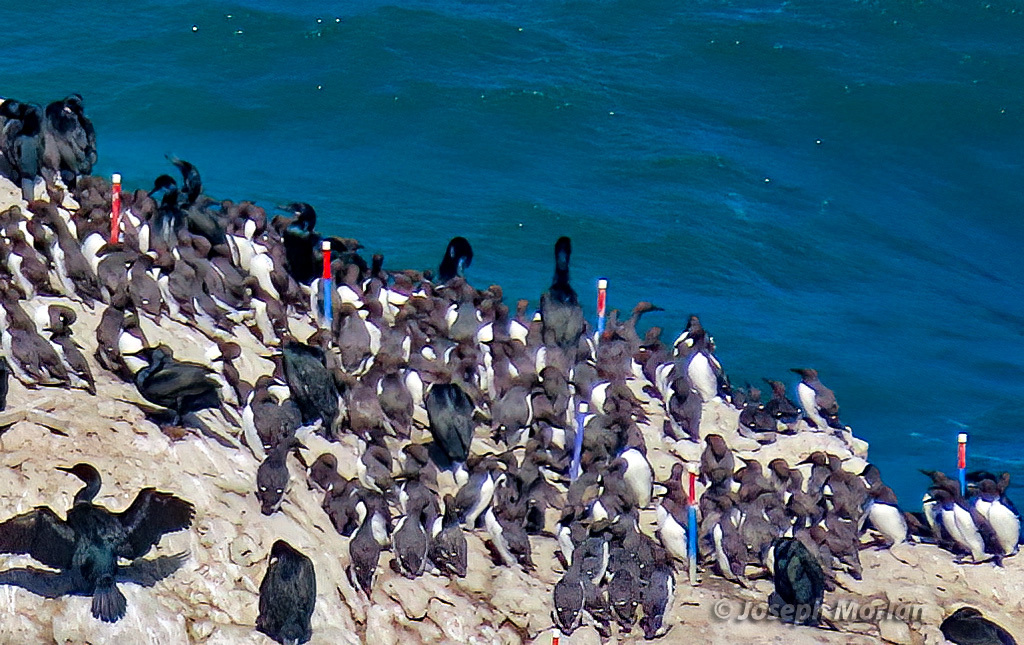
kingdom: Animalia
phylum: Chordata
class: Aves
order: Charadriiformes
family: Alcidae
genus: Uria
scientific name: Uria aalge
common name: Common murre
